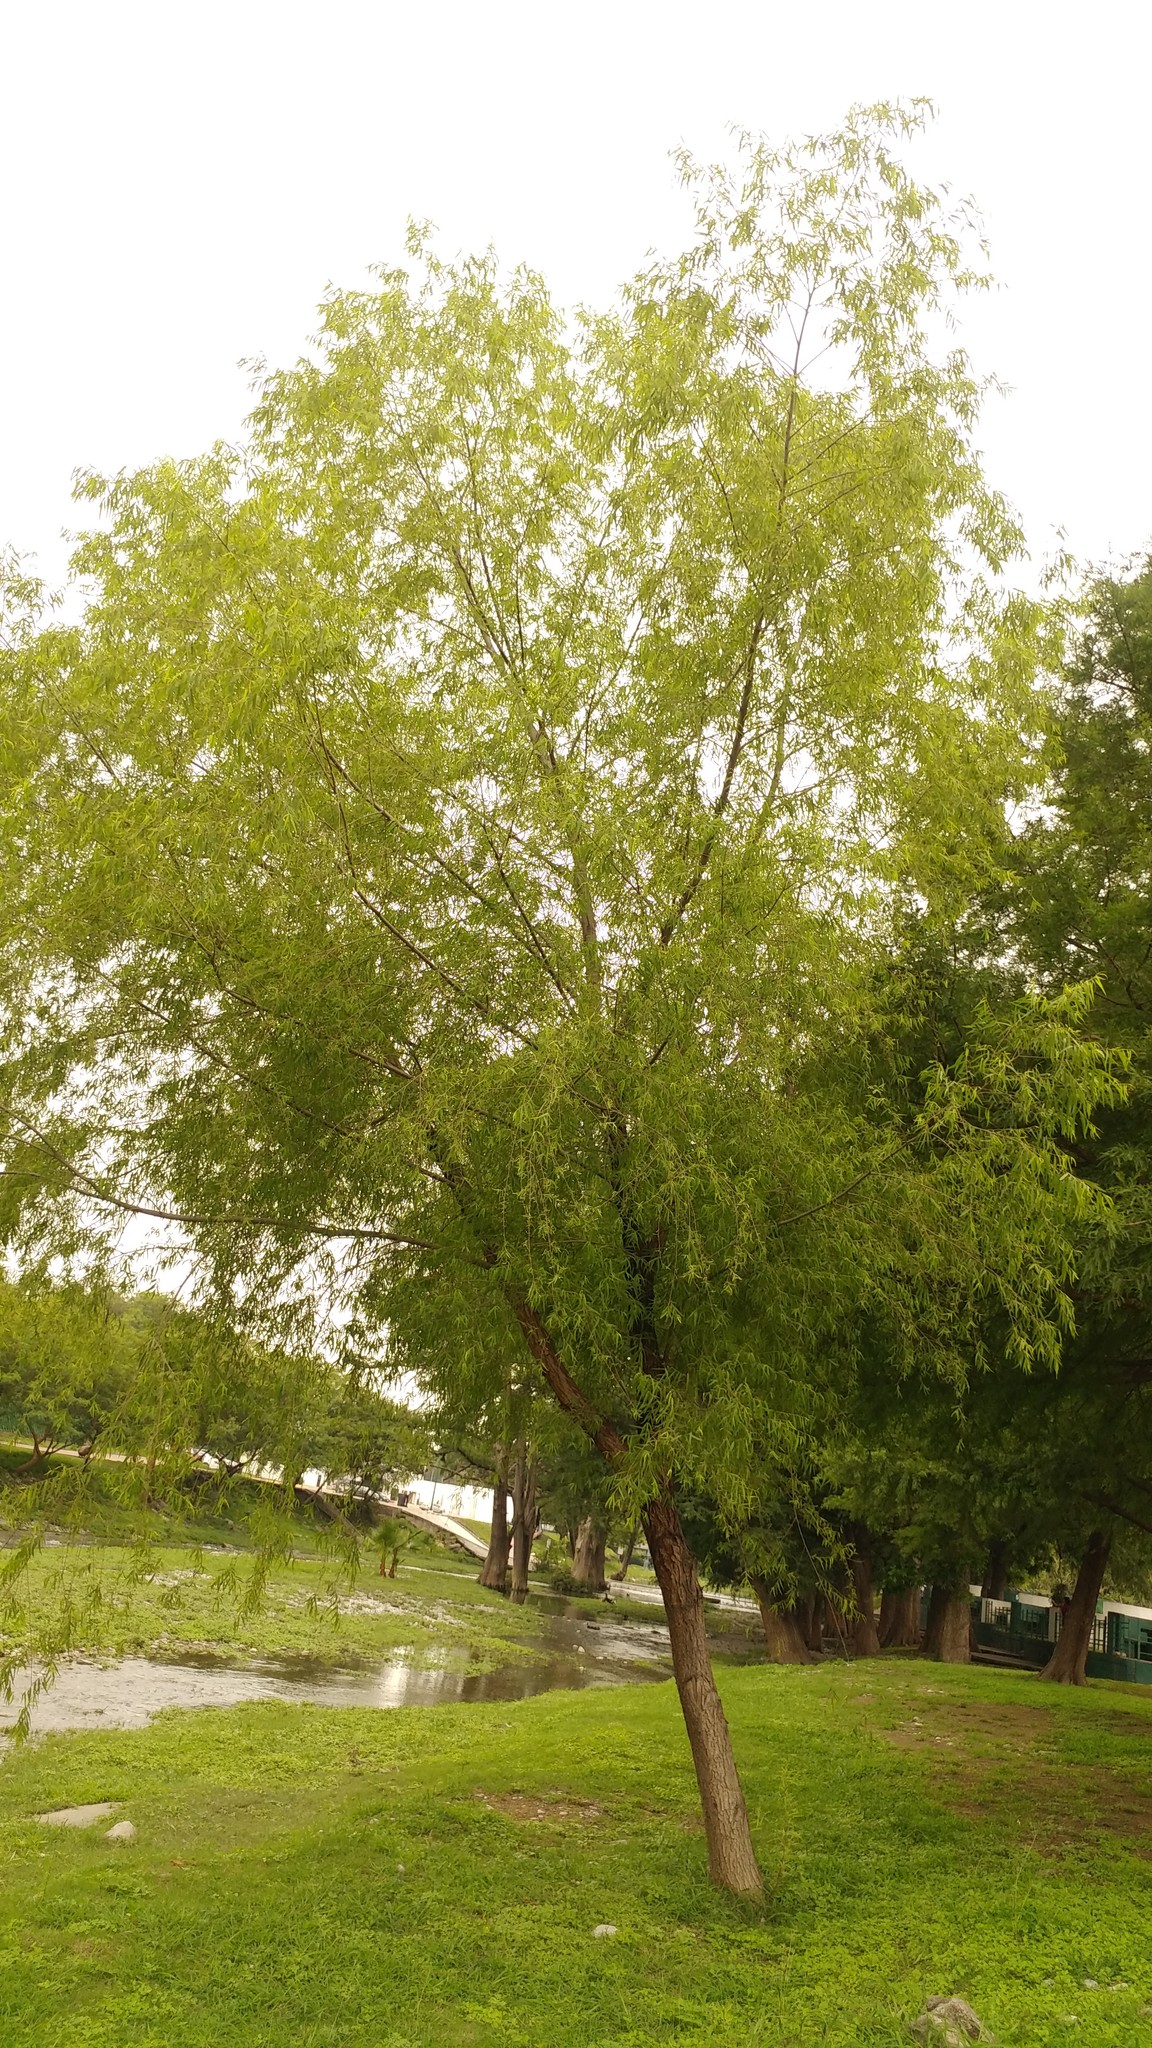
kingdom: Plantae
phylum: Tracheophyta
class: Magnoliopsida
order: Malpighiales
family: Salicaceae
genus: Salix
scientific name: Salix nigra
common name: Black willow
